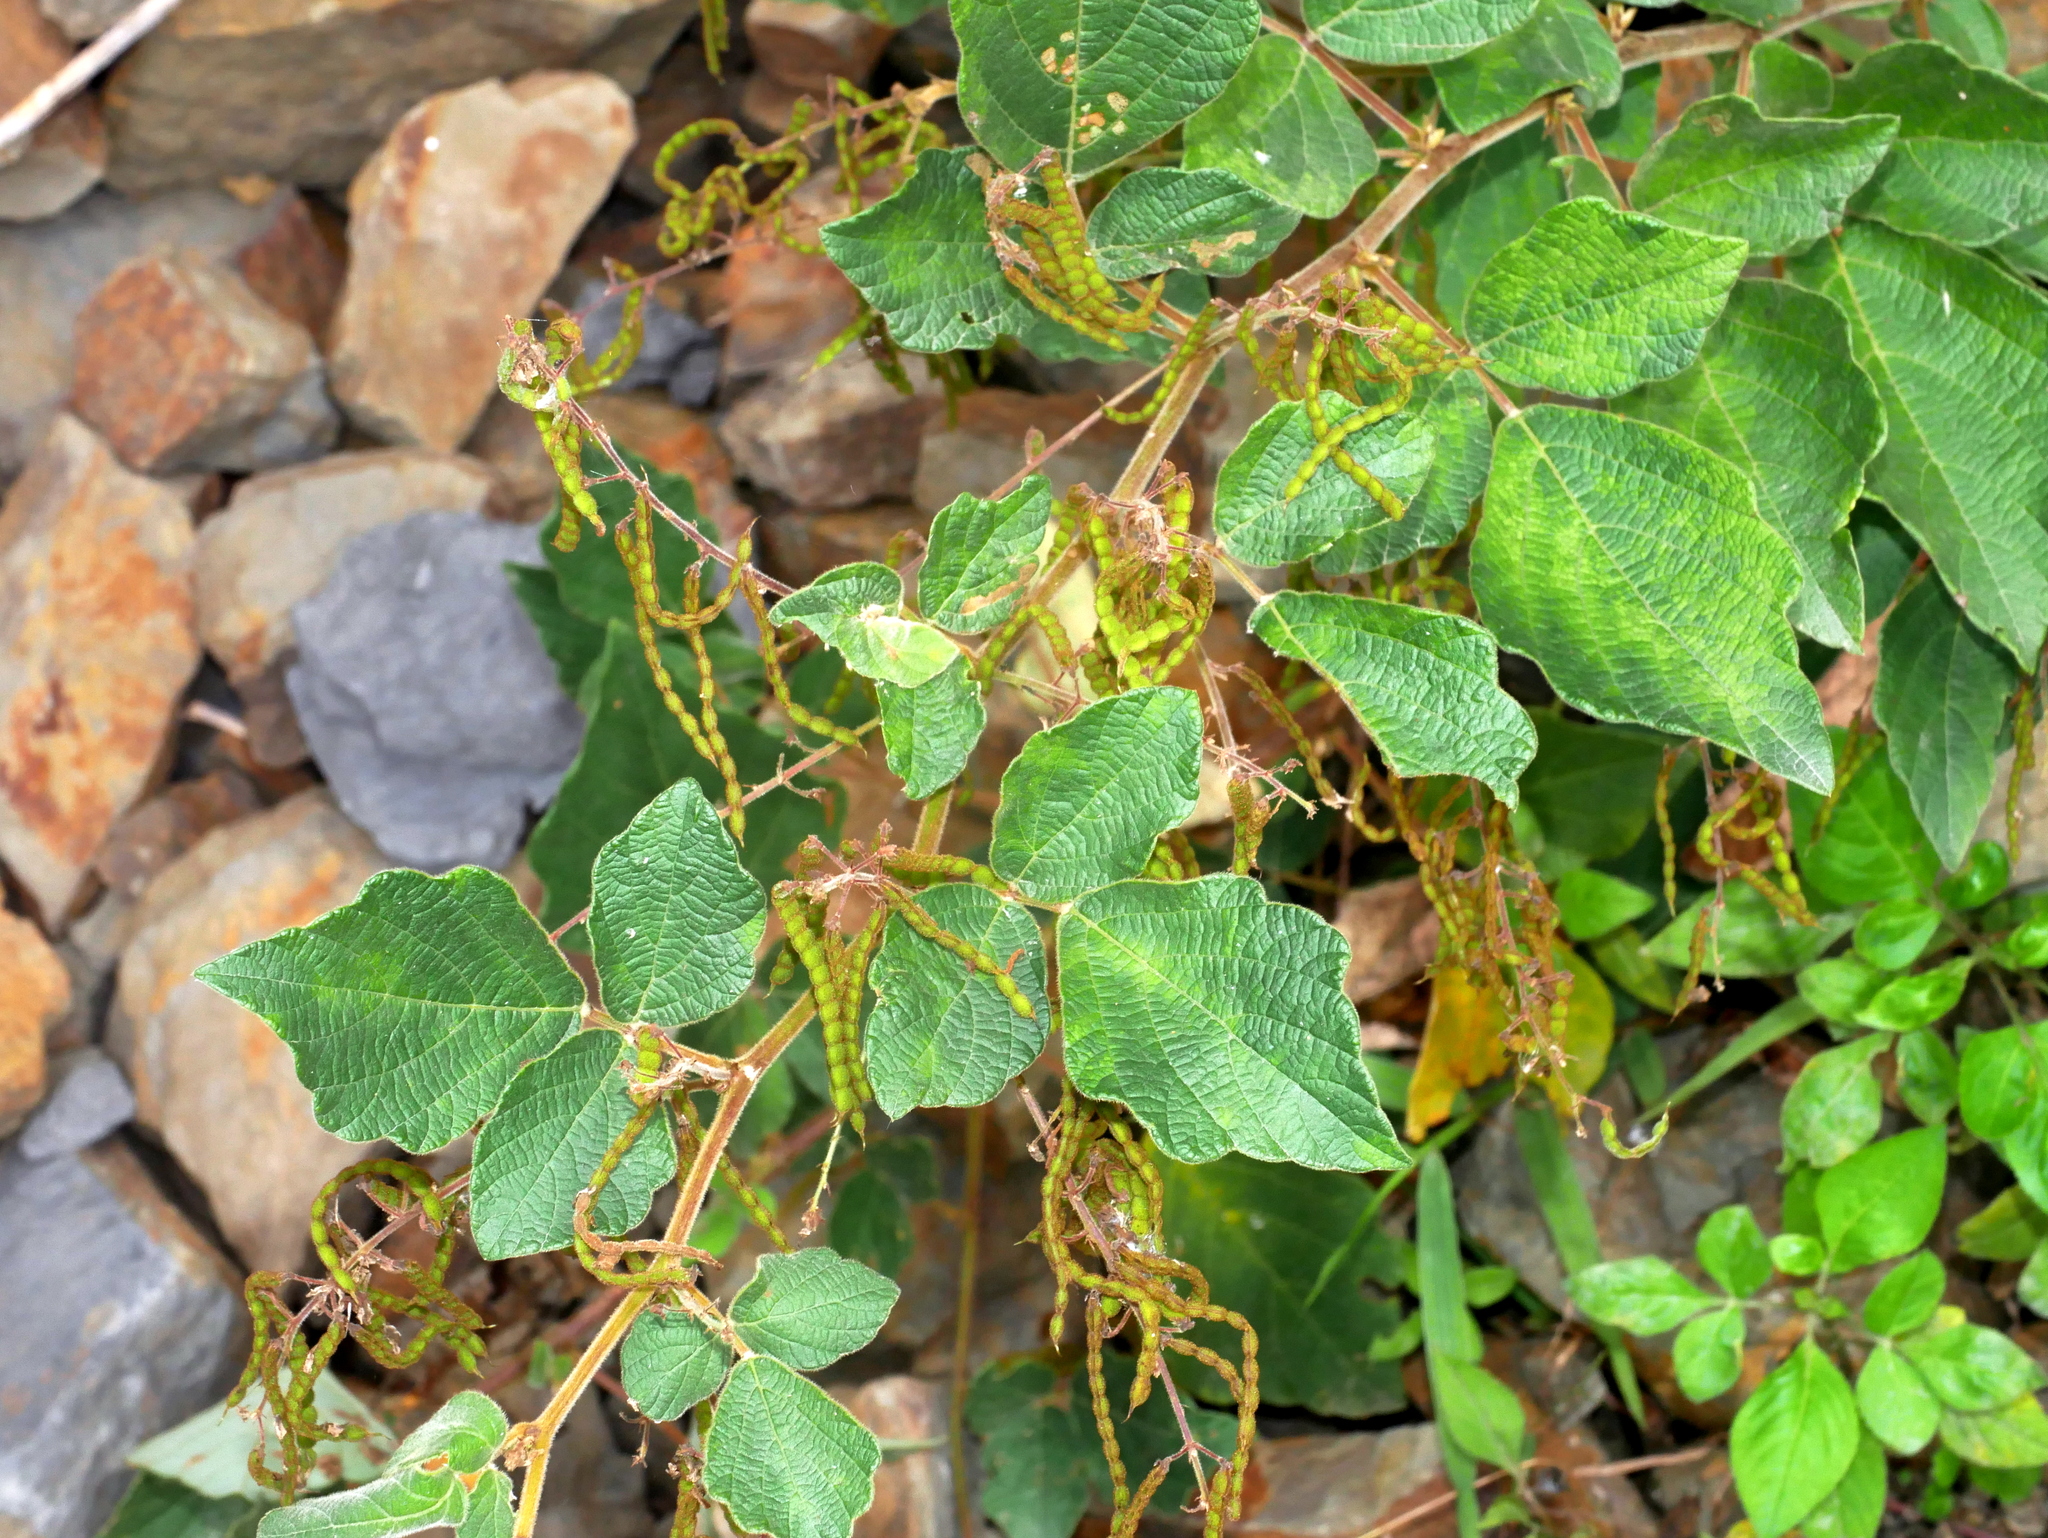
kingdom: Plantae
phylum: Tracheophyta
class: Magnoliopsida
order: Fabales
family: Fabaceae
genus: Puhuaea
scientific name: Puhuaea sequax
